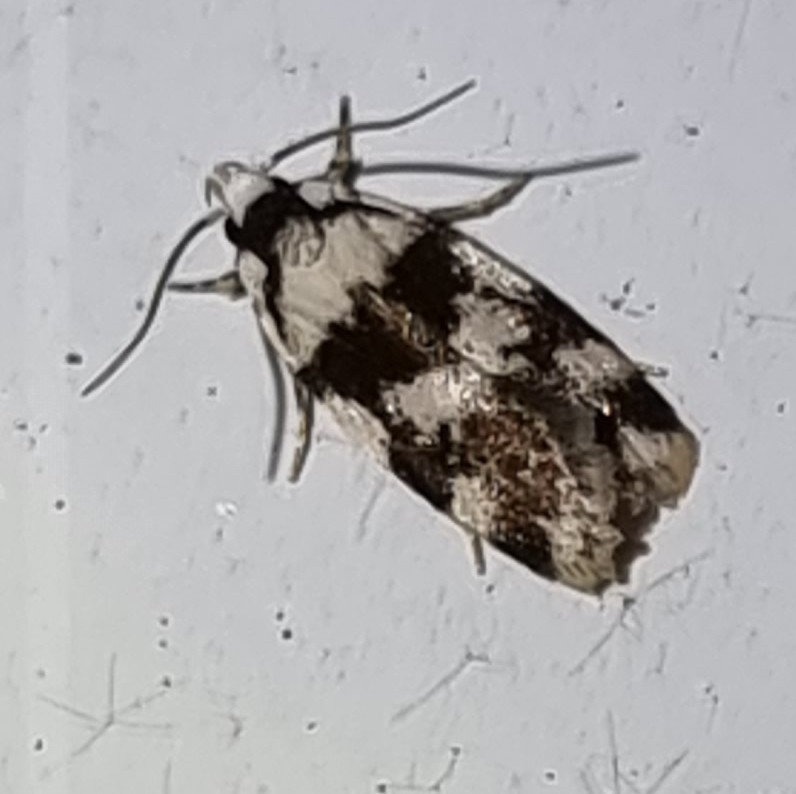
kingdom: Animalia
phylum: Arthropoda
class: Insecta
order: Lepidoptera
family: Oecophoridae
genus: Barea
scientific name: Barea leucocephala
